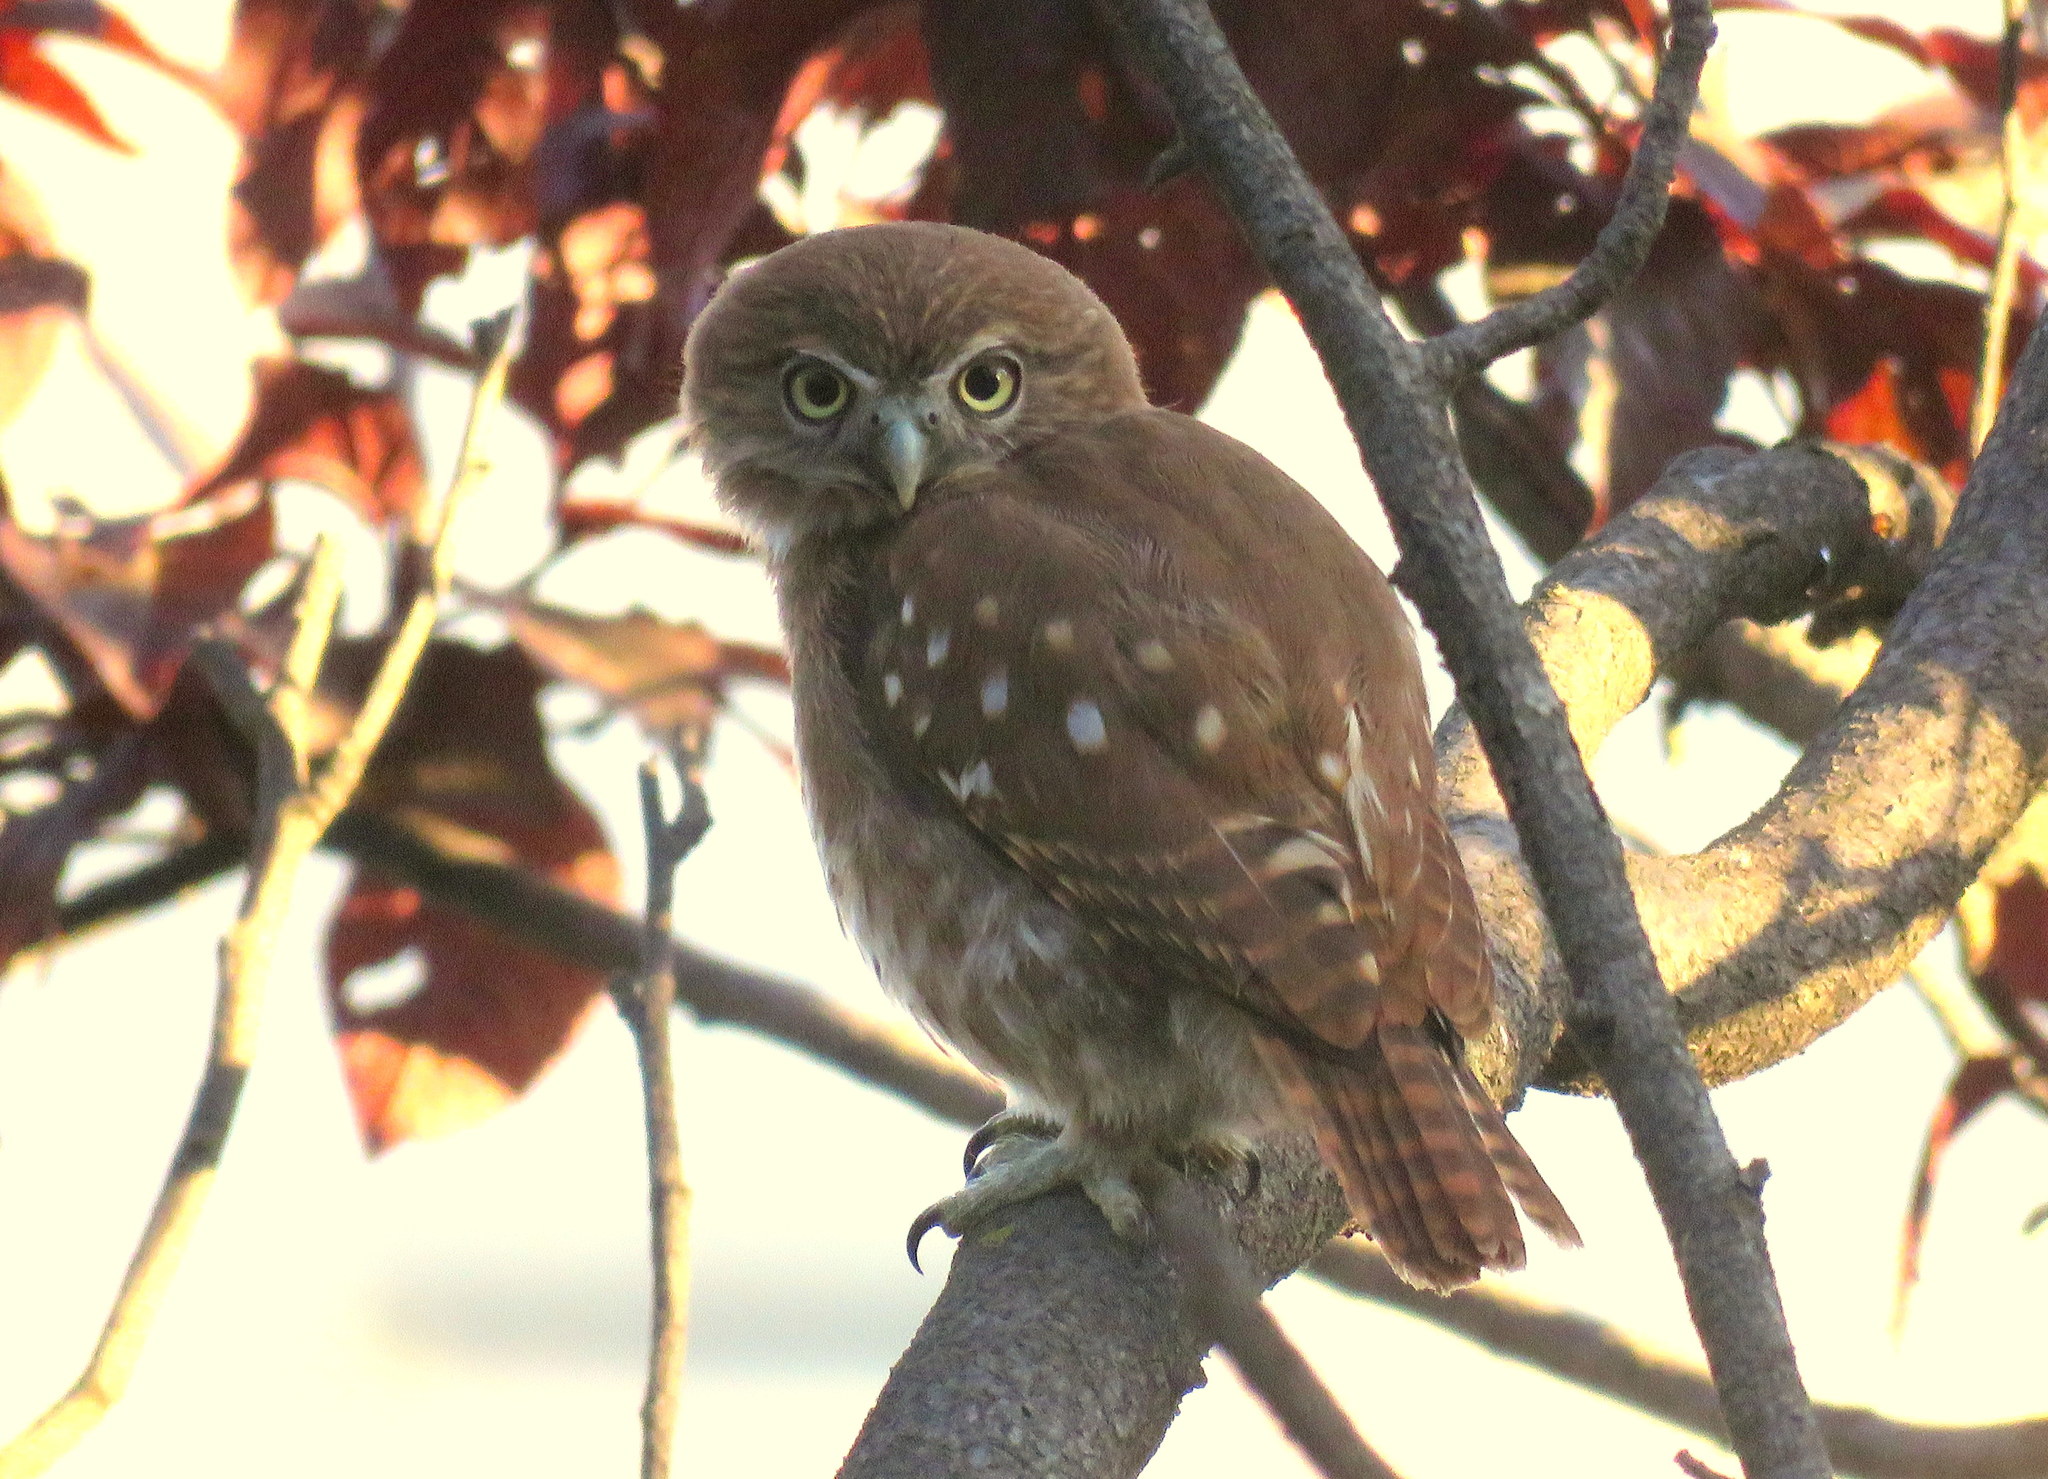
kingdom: Animalia
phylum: Chordata
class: Aves
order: Strigiformes
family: Strigidae
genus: Glaucidium
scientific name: Glaucidium brasilianum
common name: Ferruginous pygmy-owl
